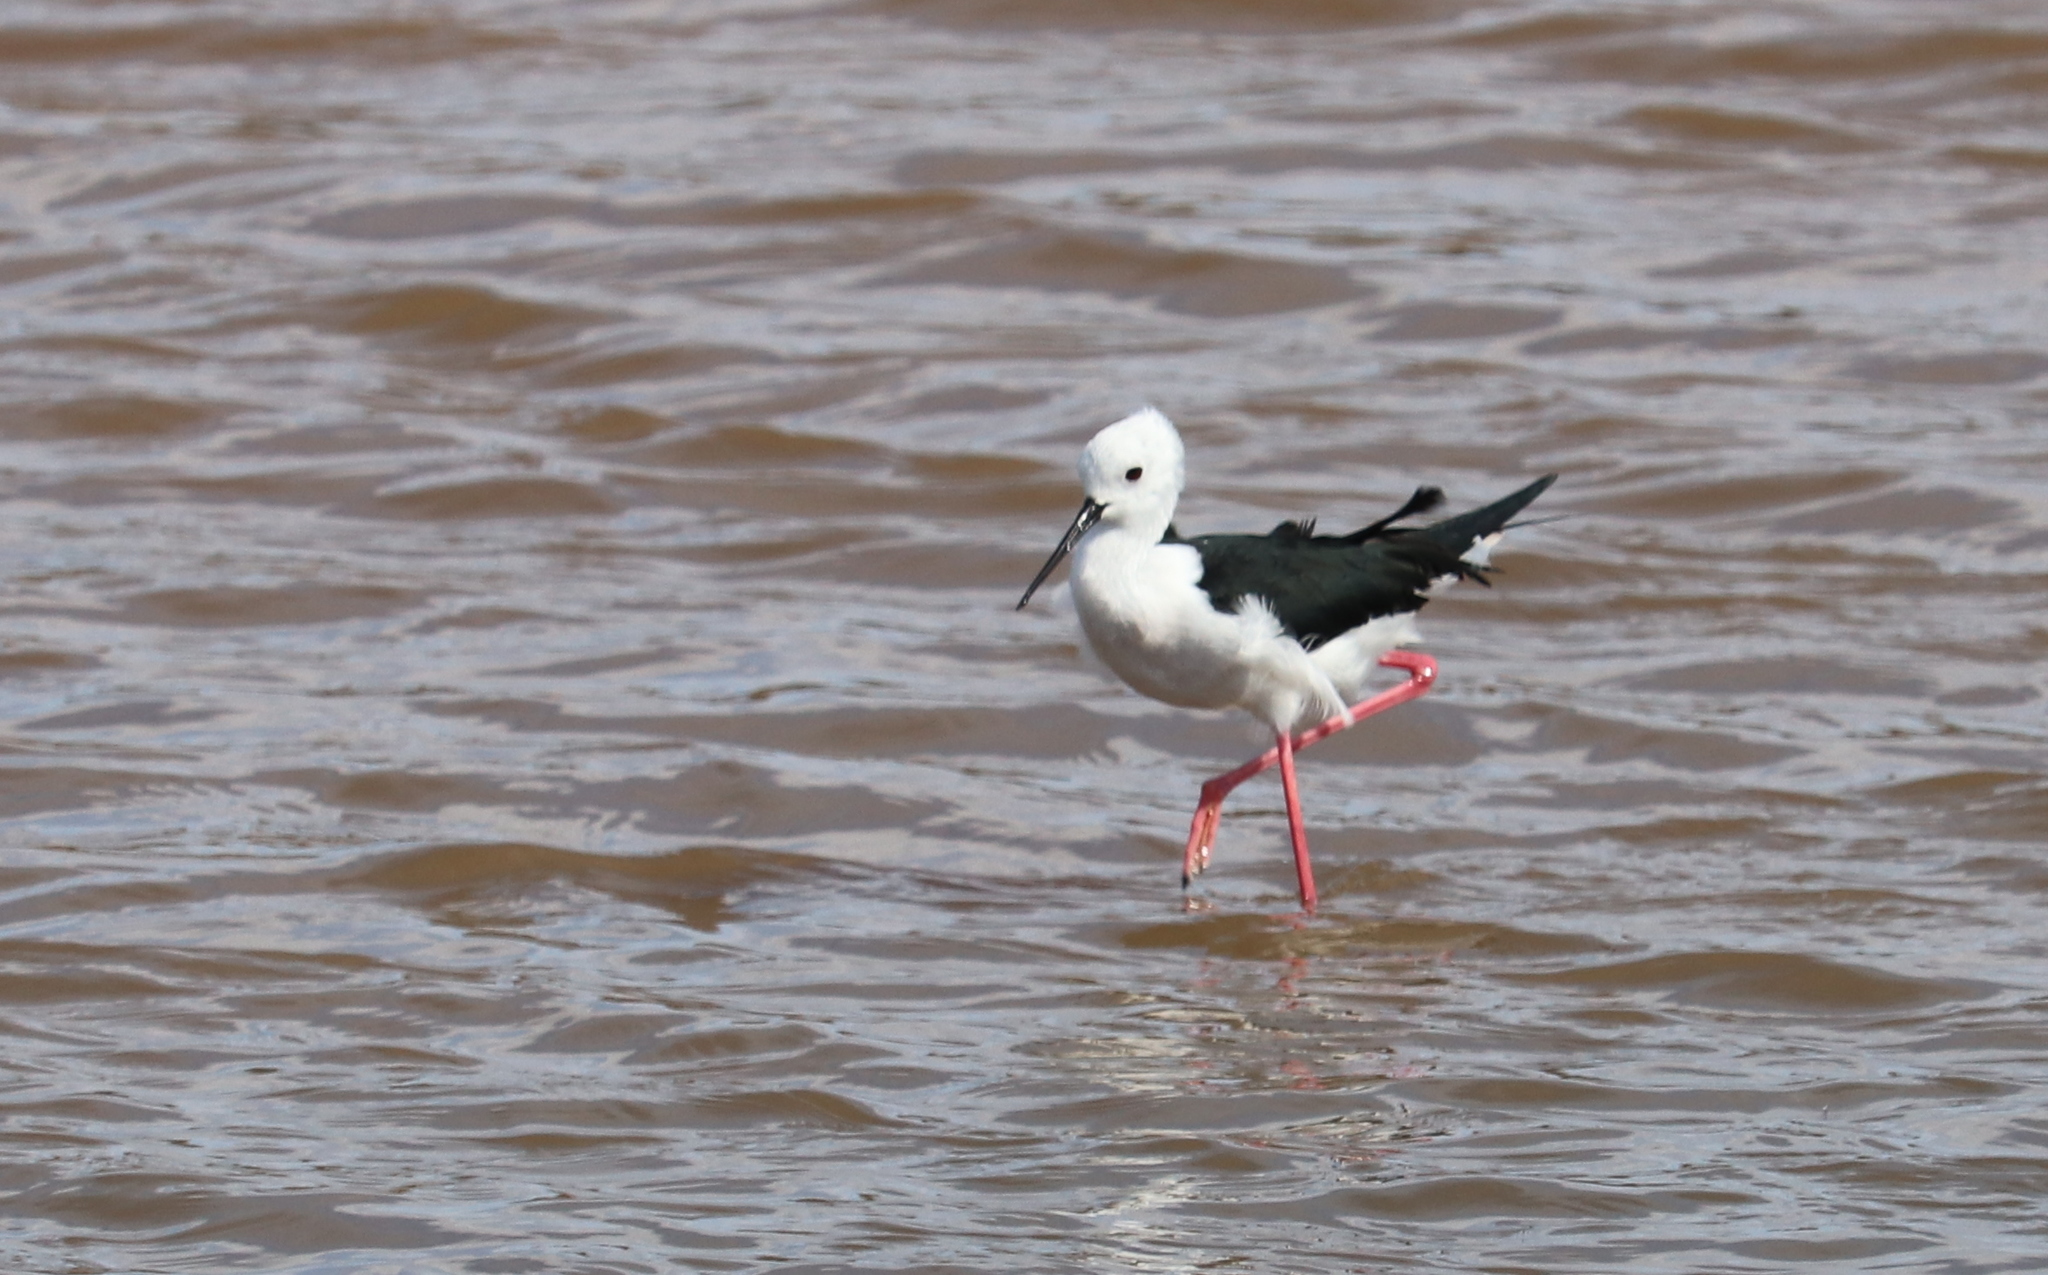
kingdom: Animalia
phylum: Chordata
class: Aves
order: Charadriiformes
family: Recurvirostridae
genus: Himantopus
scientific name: Himantopus himantopus
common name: Black-winged stilt
